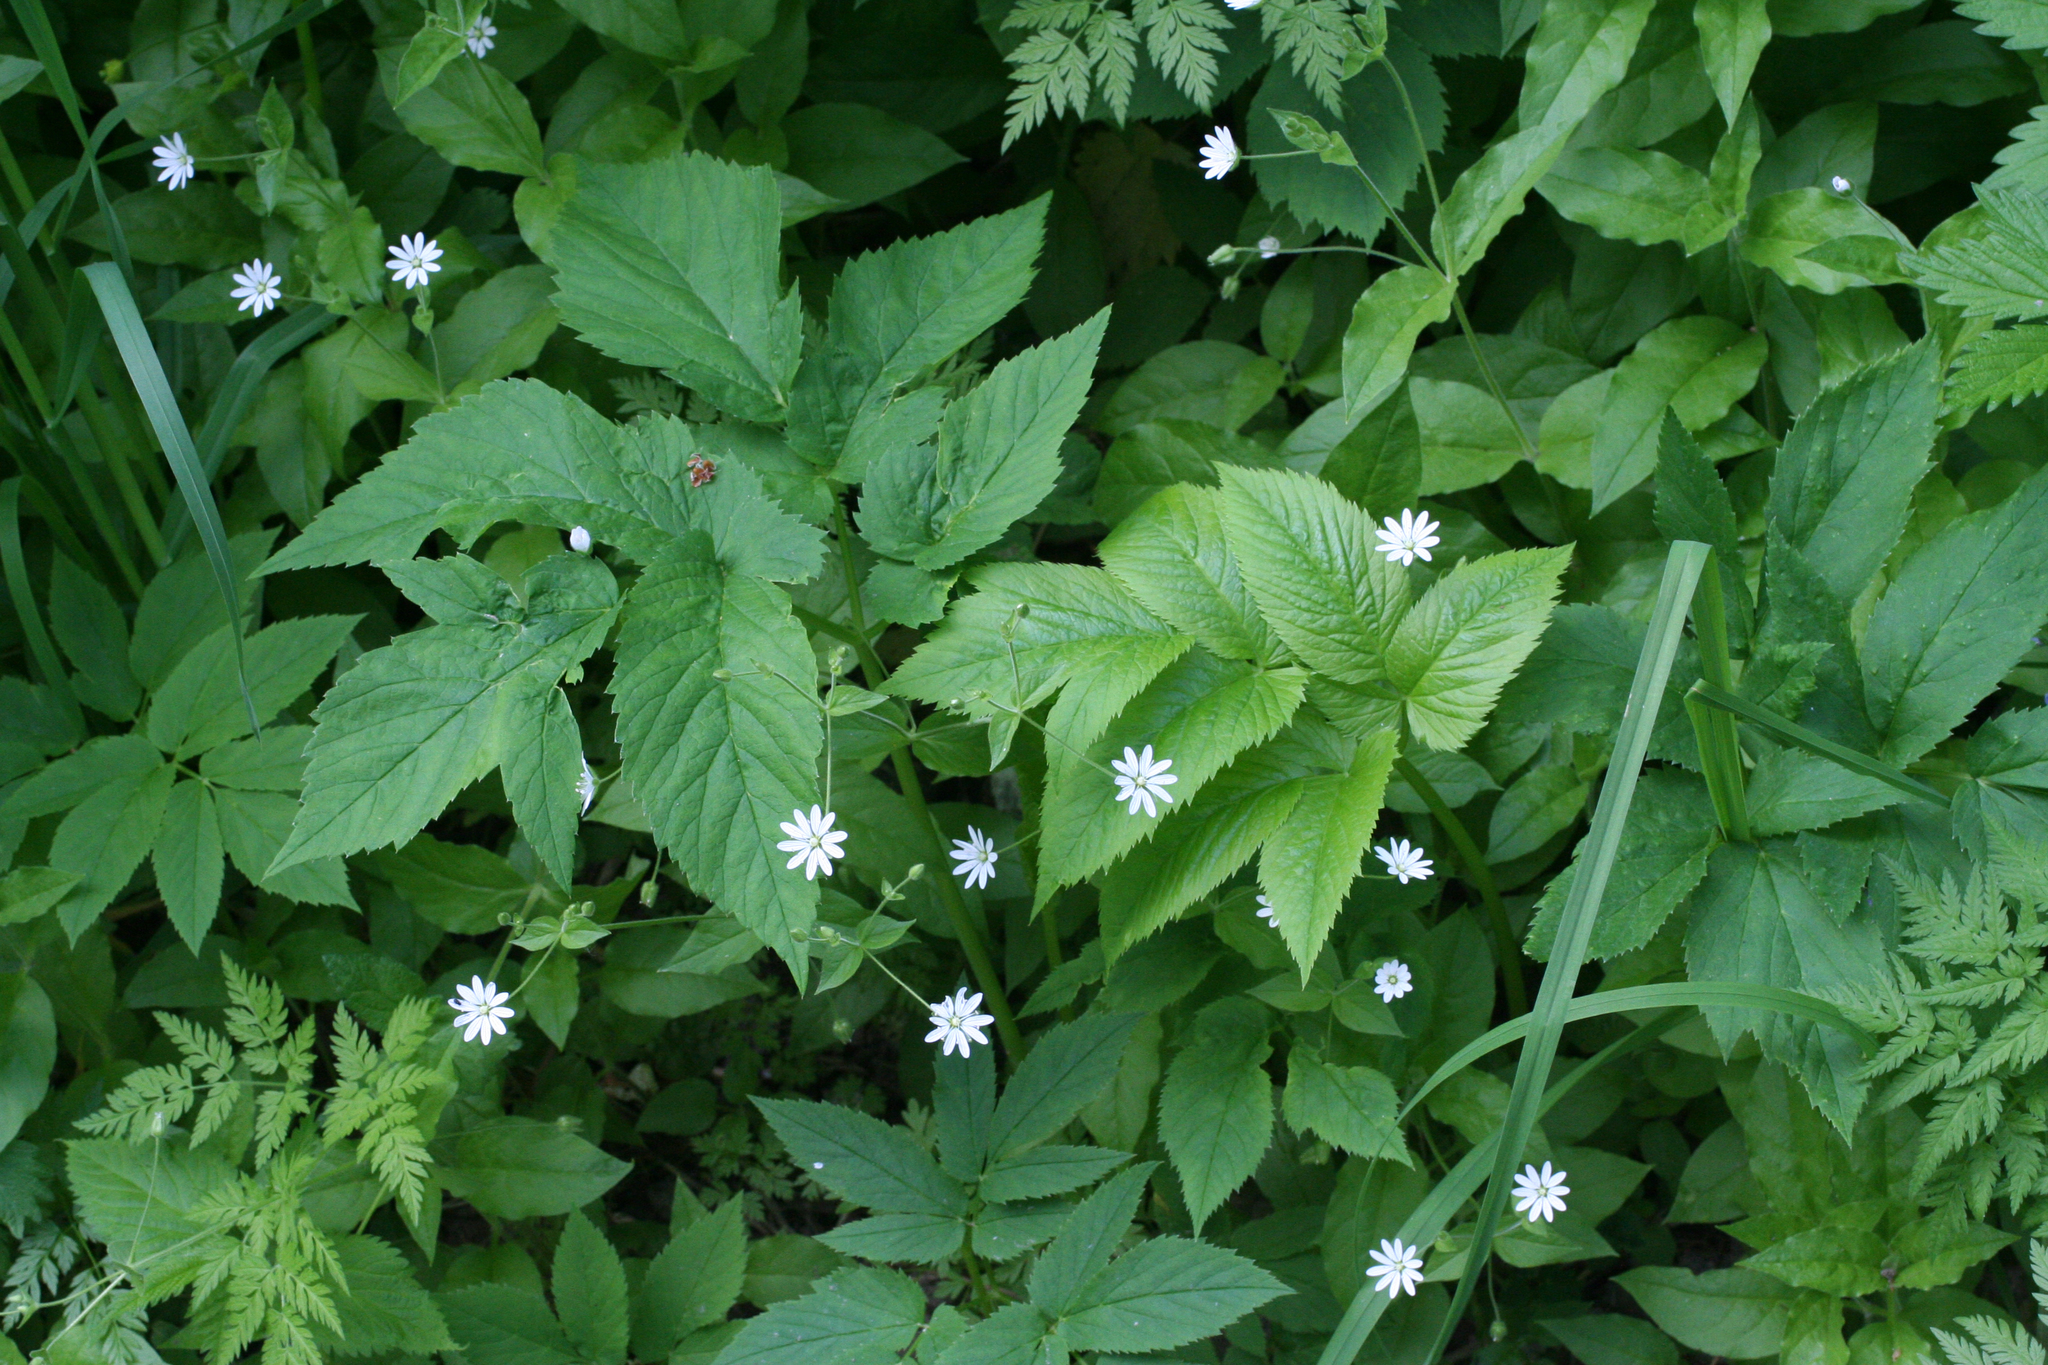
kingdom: Plantae
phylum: Tracheophyta
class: Magnoliopsida
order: Caryophyllales
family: Caryophyllaceae
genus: Stellaria
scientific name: Stellaria bungeana
